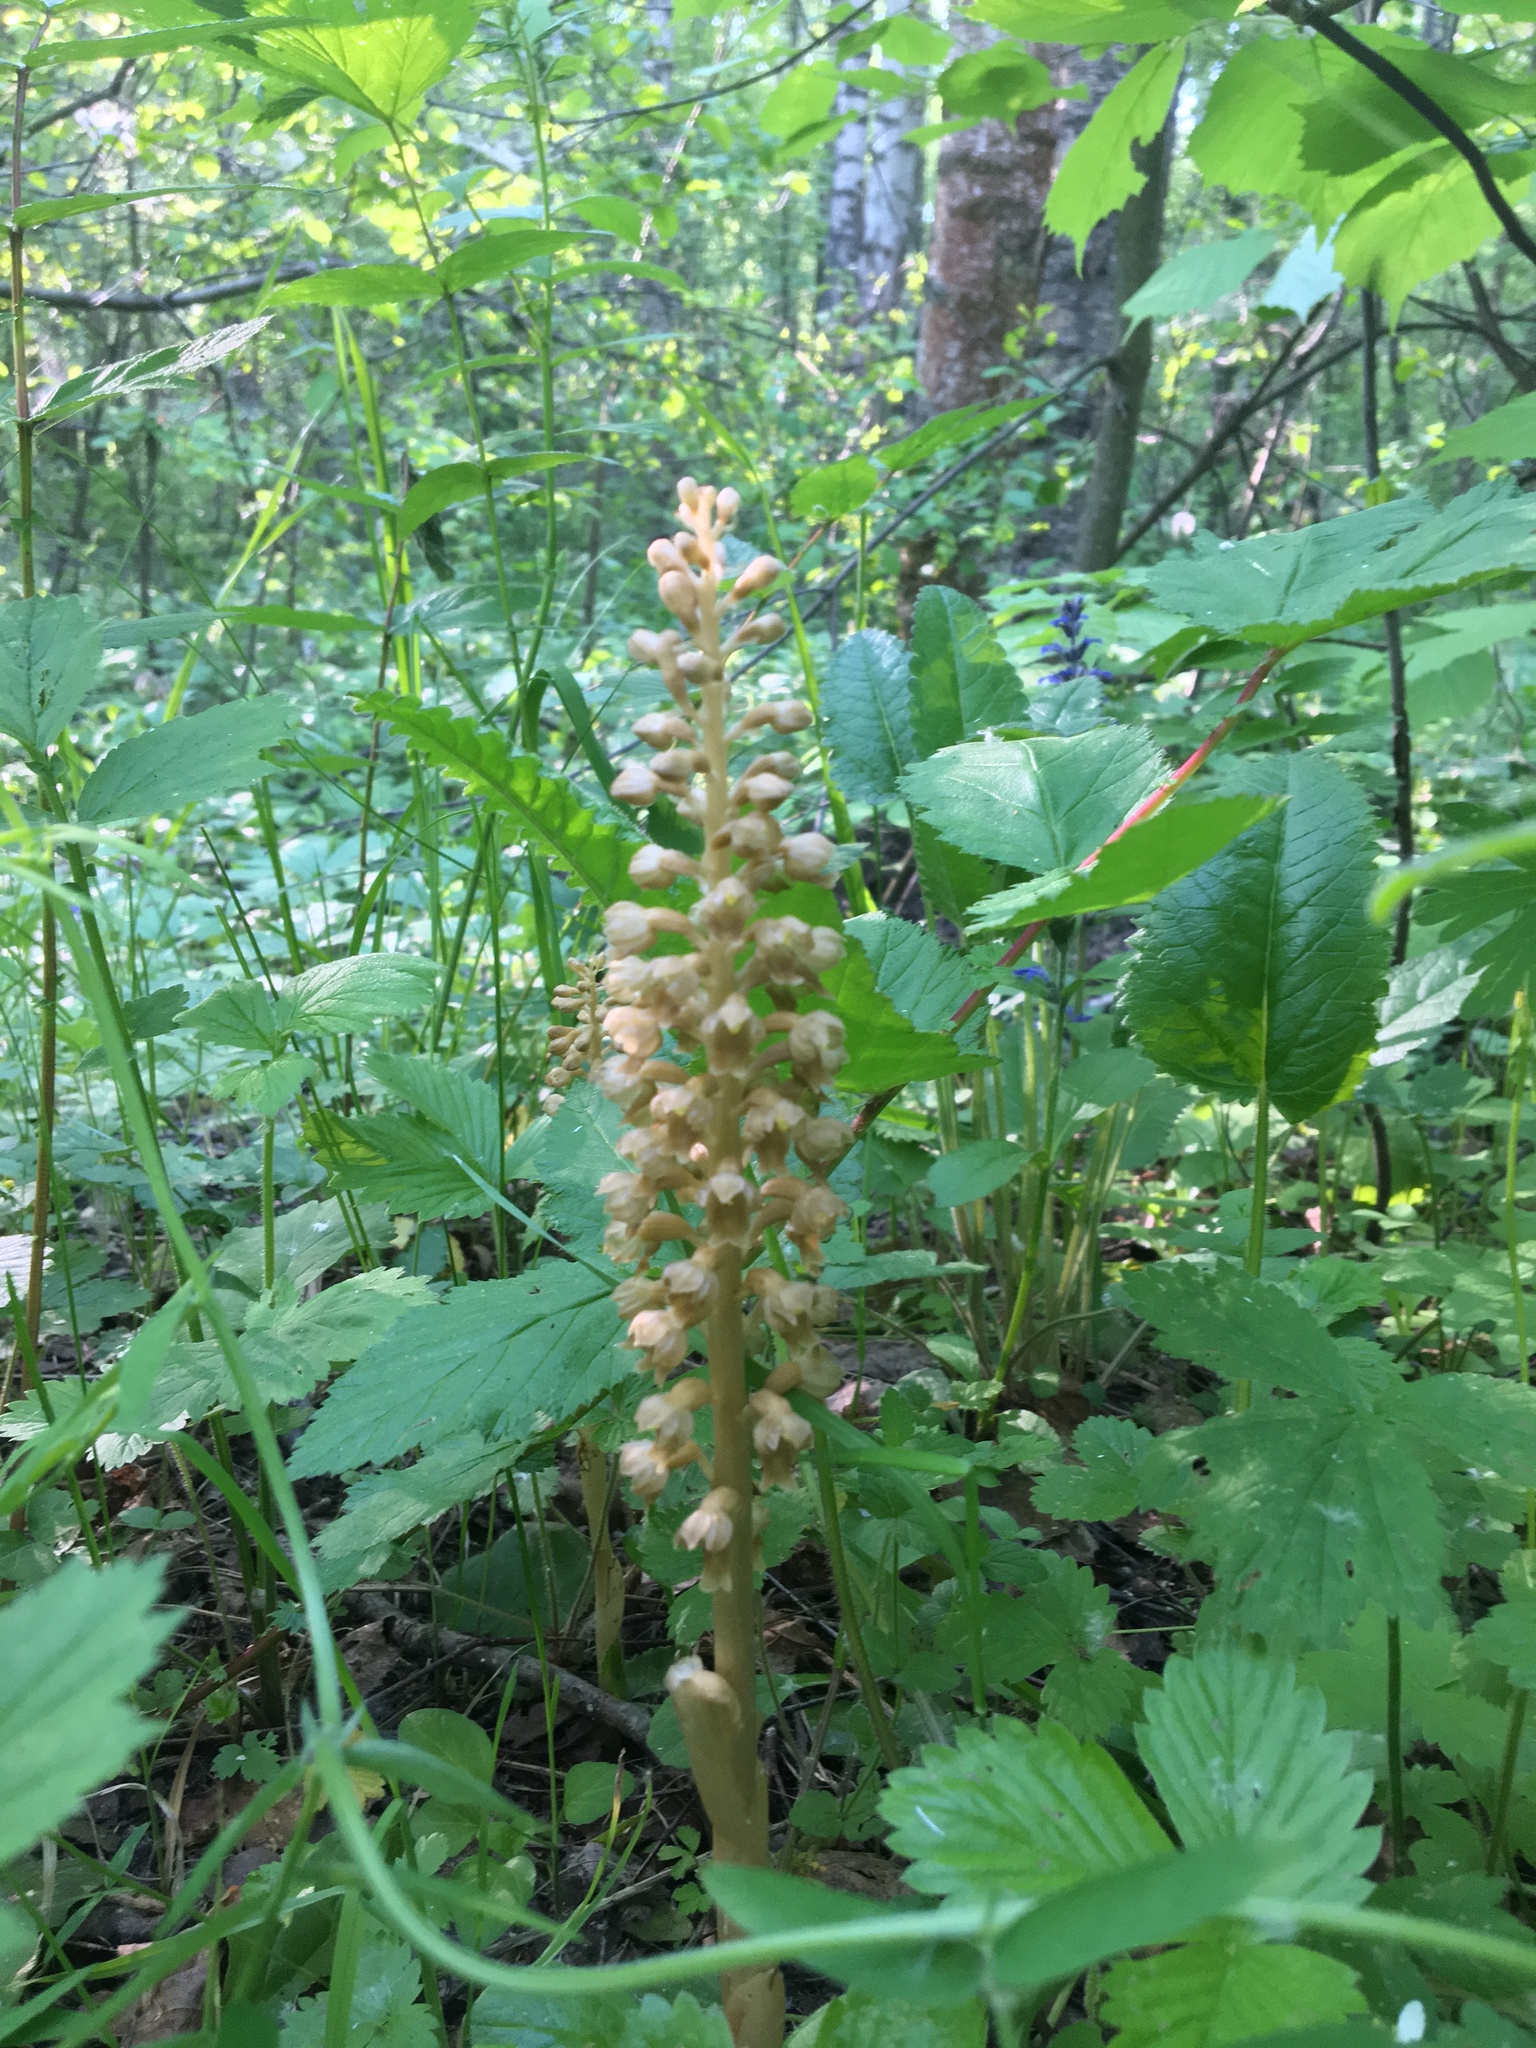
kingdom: Plantae
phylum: Tracheophyta
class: Liliopsida
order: Asparagales
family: Orchidaceae
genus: Neottia
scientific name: Neottia nidus-avis
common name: Bird's-nest orchid
